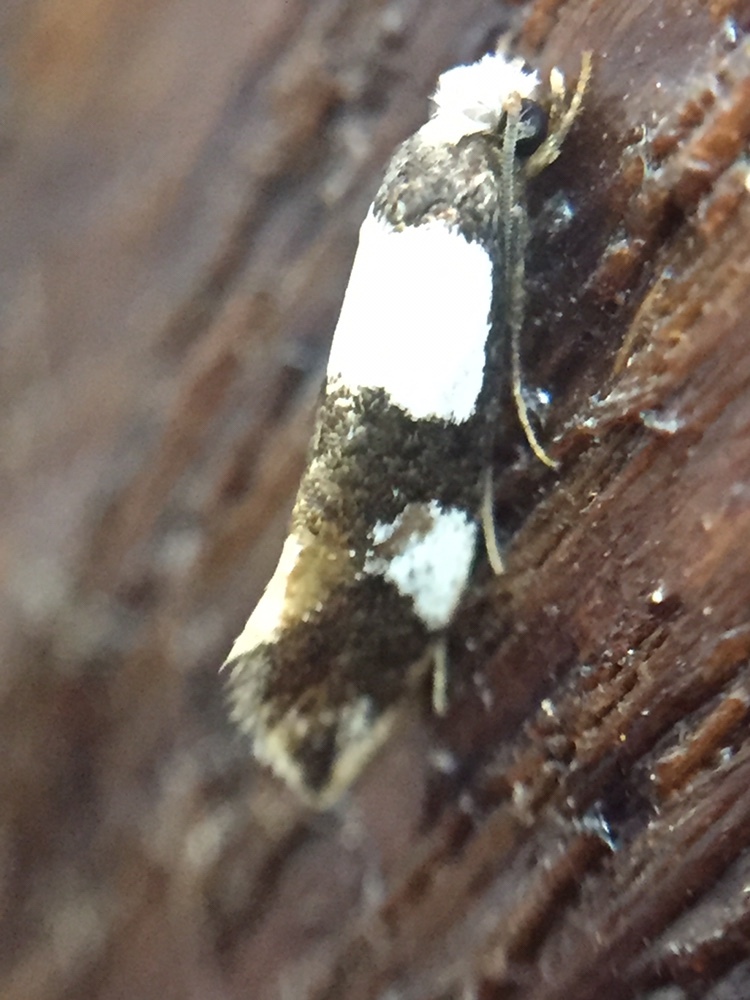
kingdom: Animalia
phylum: Arthropoda
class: Insecta
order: Lepidoptera
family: Tineidae
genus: Monopis
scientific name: Monopis icterogastra
